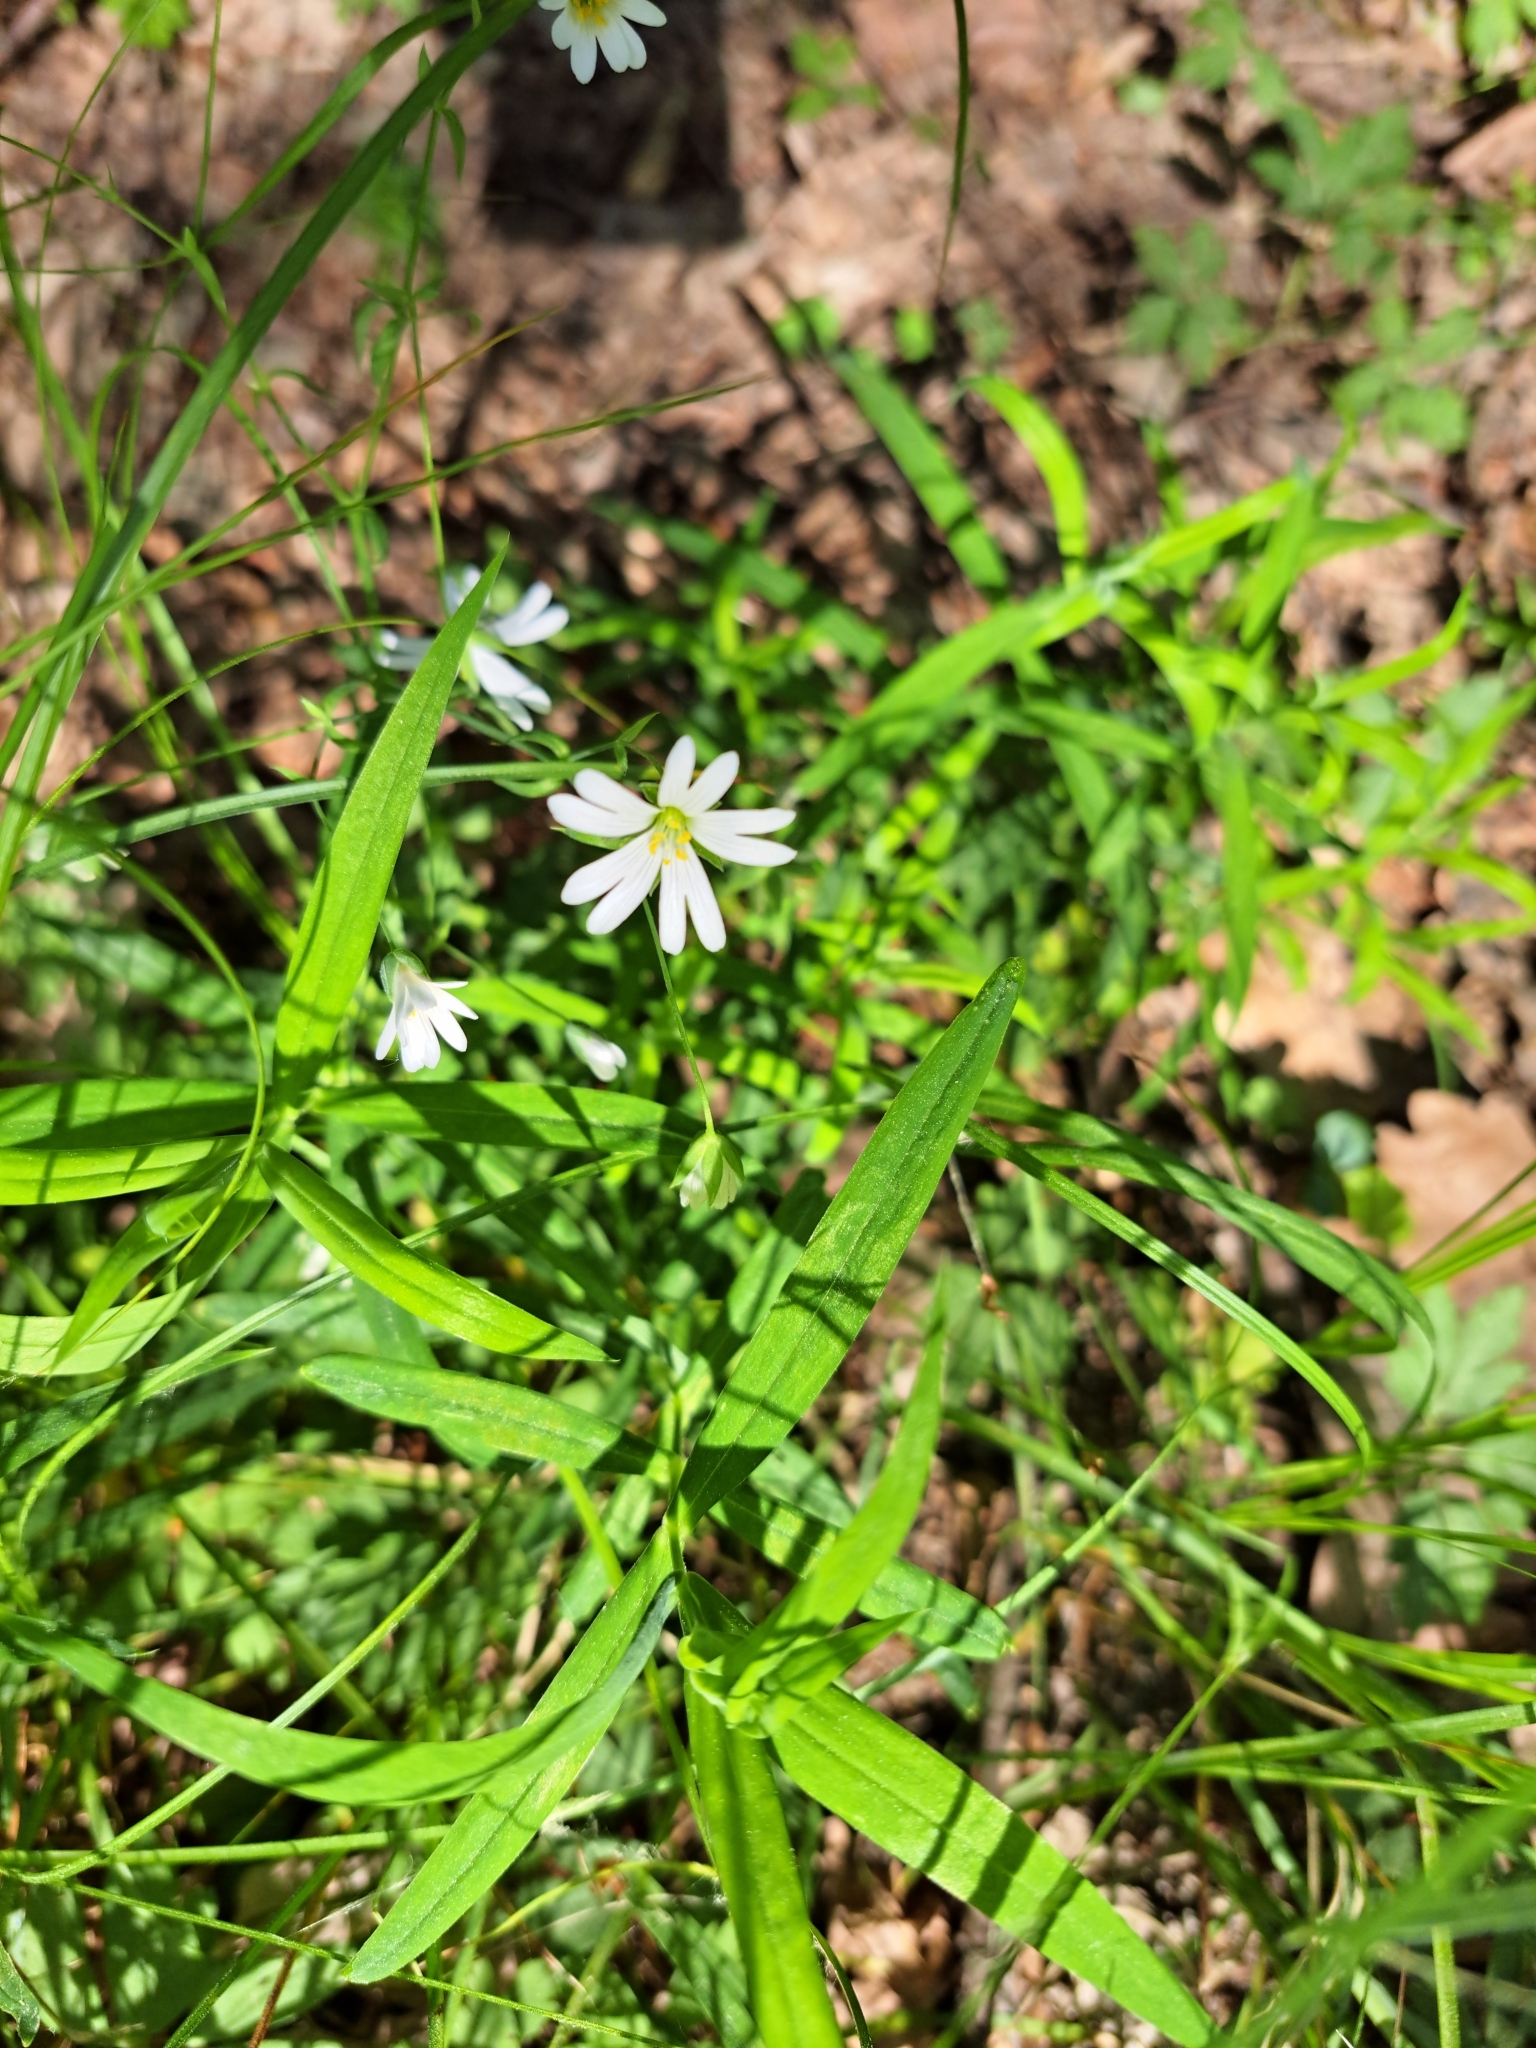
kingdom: Plantae
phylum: Tracheophyta
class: Magnoliopsida
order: Caryophyllales
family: Caryophyllaceae
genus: Rabelera
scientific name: Rabelera holostea
